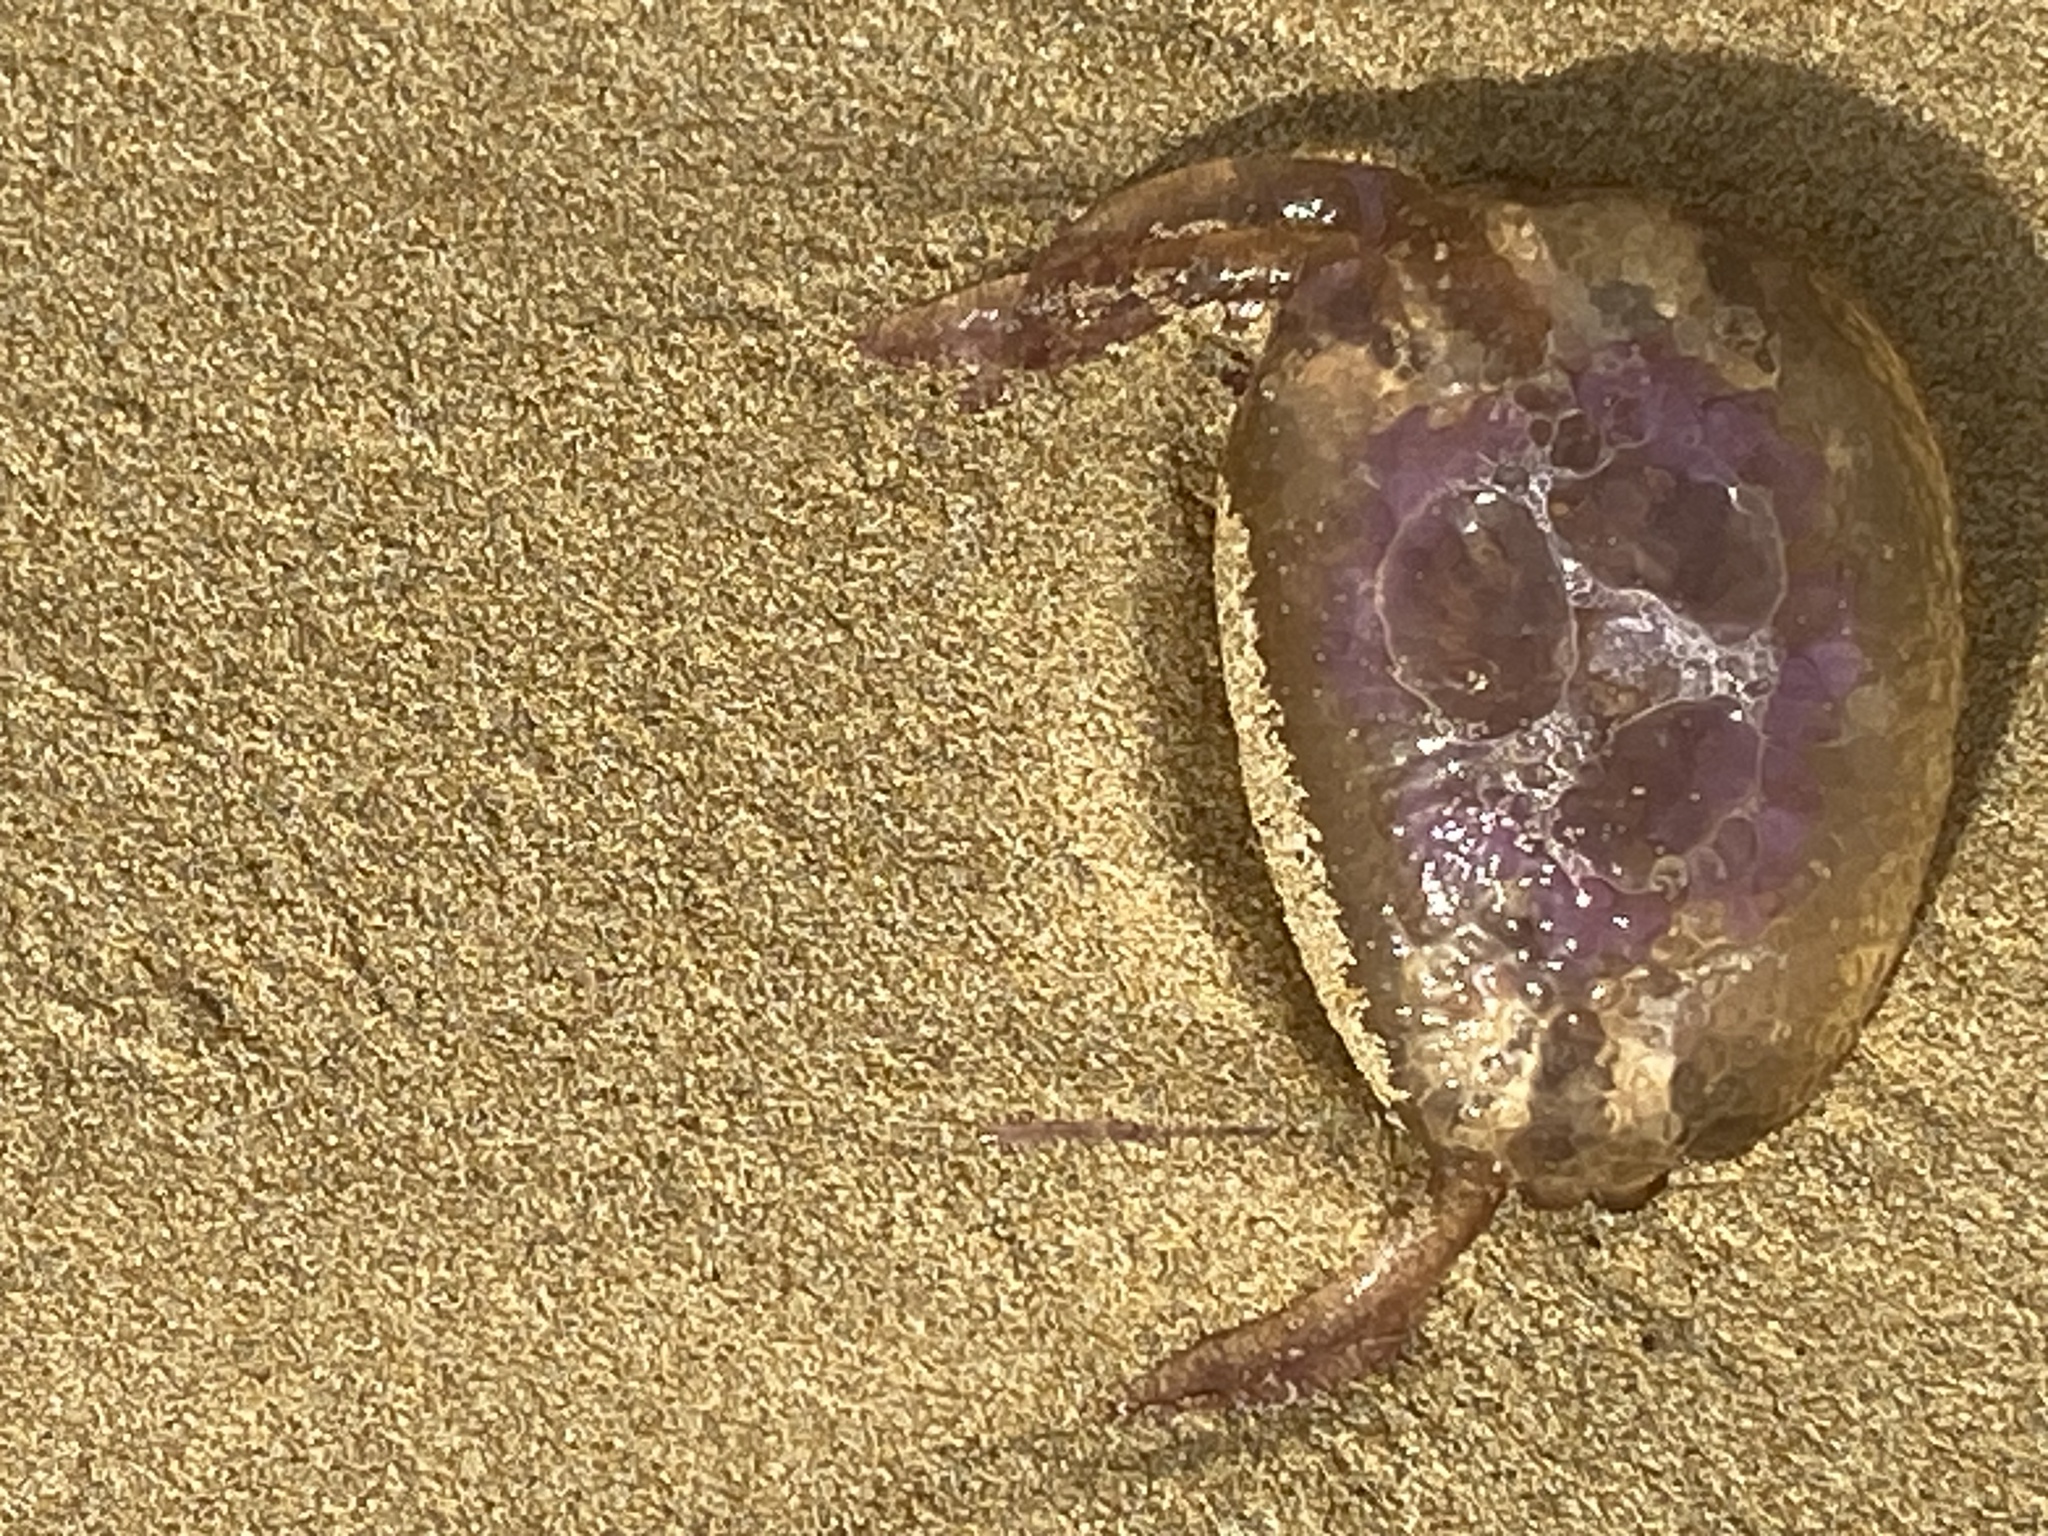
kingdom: Animalia
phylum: Cnidaria
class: Scyphozoa
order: Semaeostomeae
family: Pelagiidae
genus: Pelagia
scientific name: Pelagia noctiluca
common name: Mauve stinger
